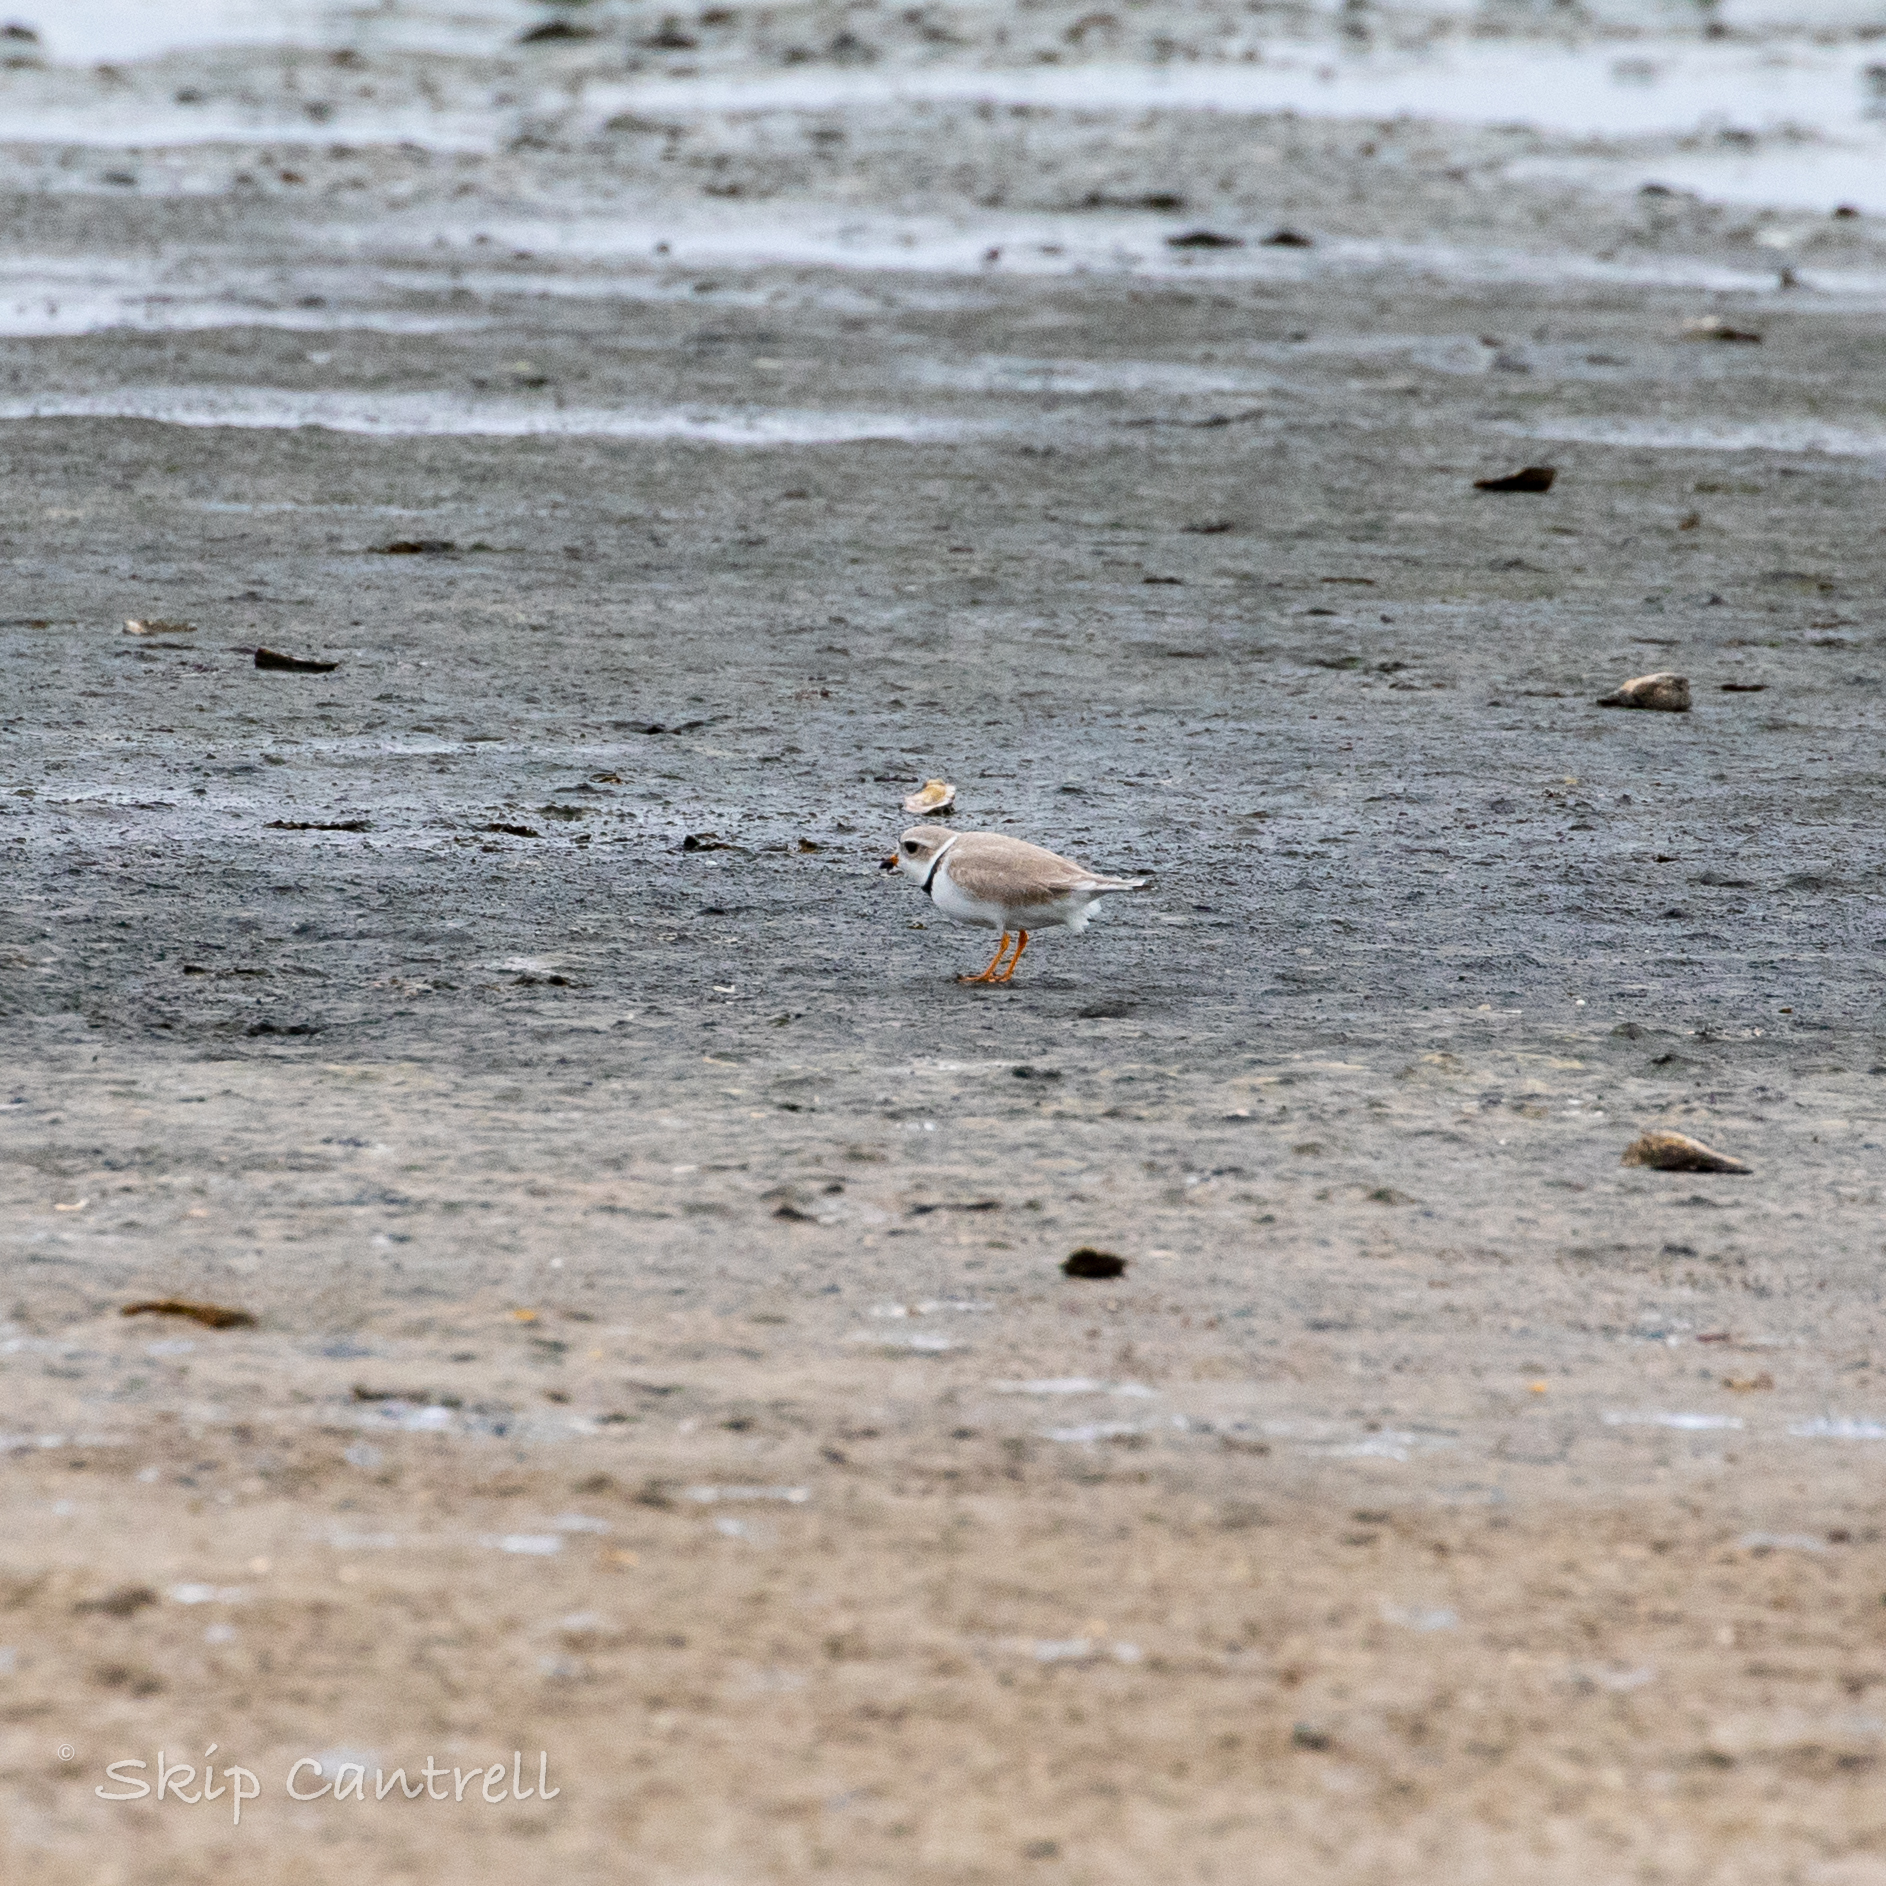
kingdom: Animalia
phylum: Chordata
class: Aves
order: Charadriiformes
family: Charadriidae
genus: Charadrius
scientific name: Charadrius melodus
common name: Piping plover
